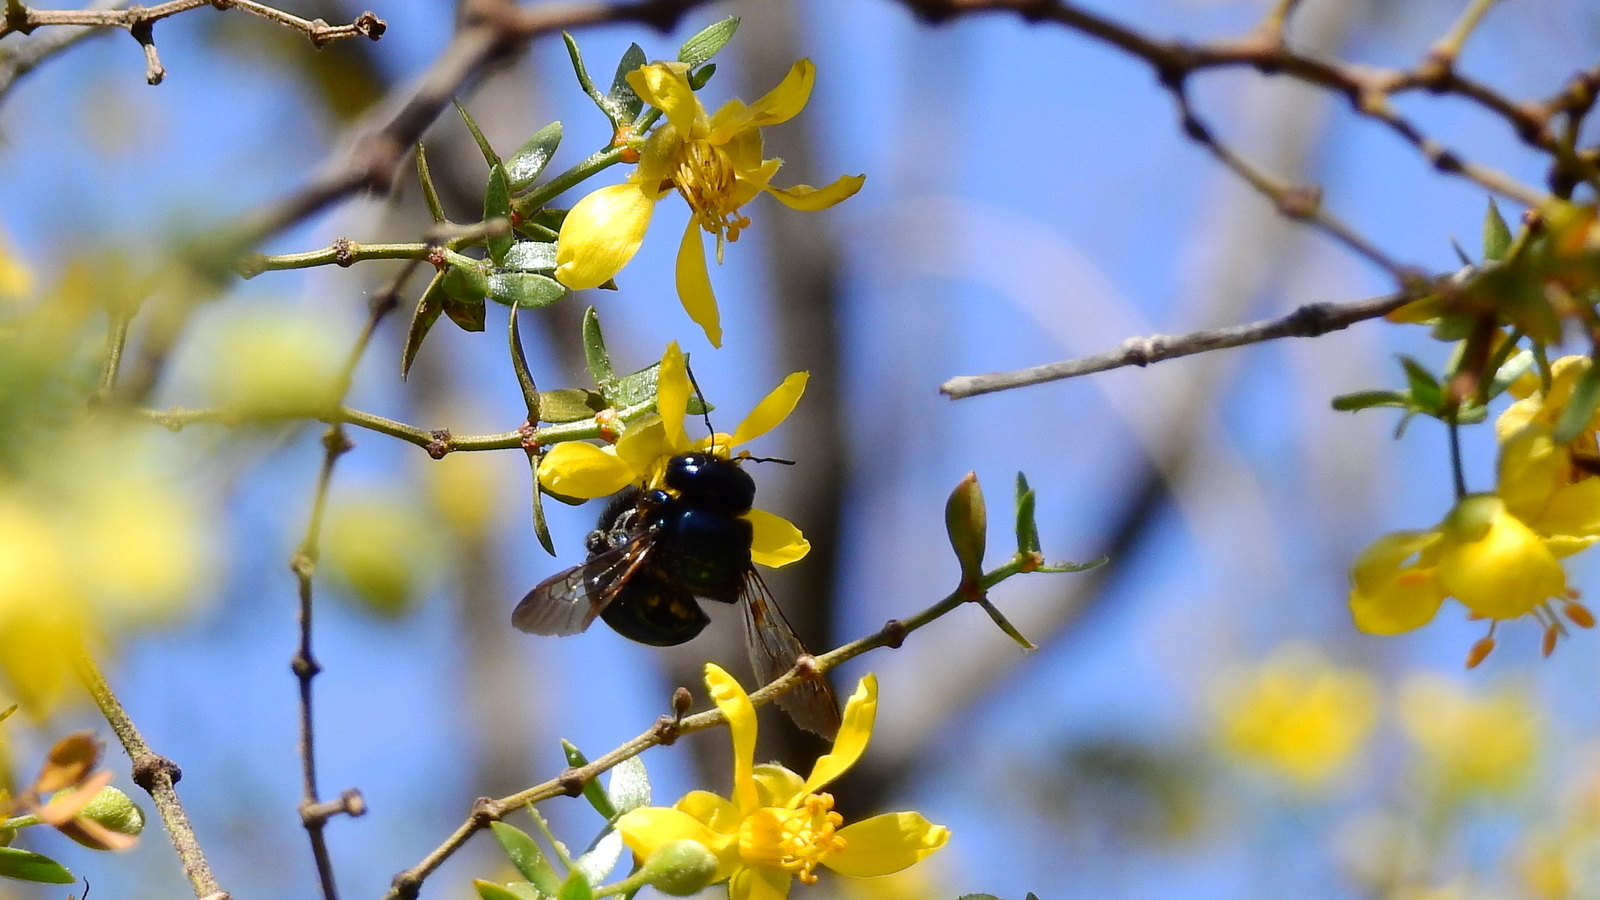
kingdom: Animalia
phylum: Arthropoda
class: Insecta
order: Hymenoptera
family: Apidae
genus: Xylocopa
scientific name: Xylocopa splendidula
